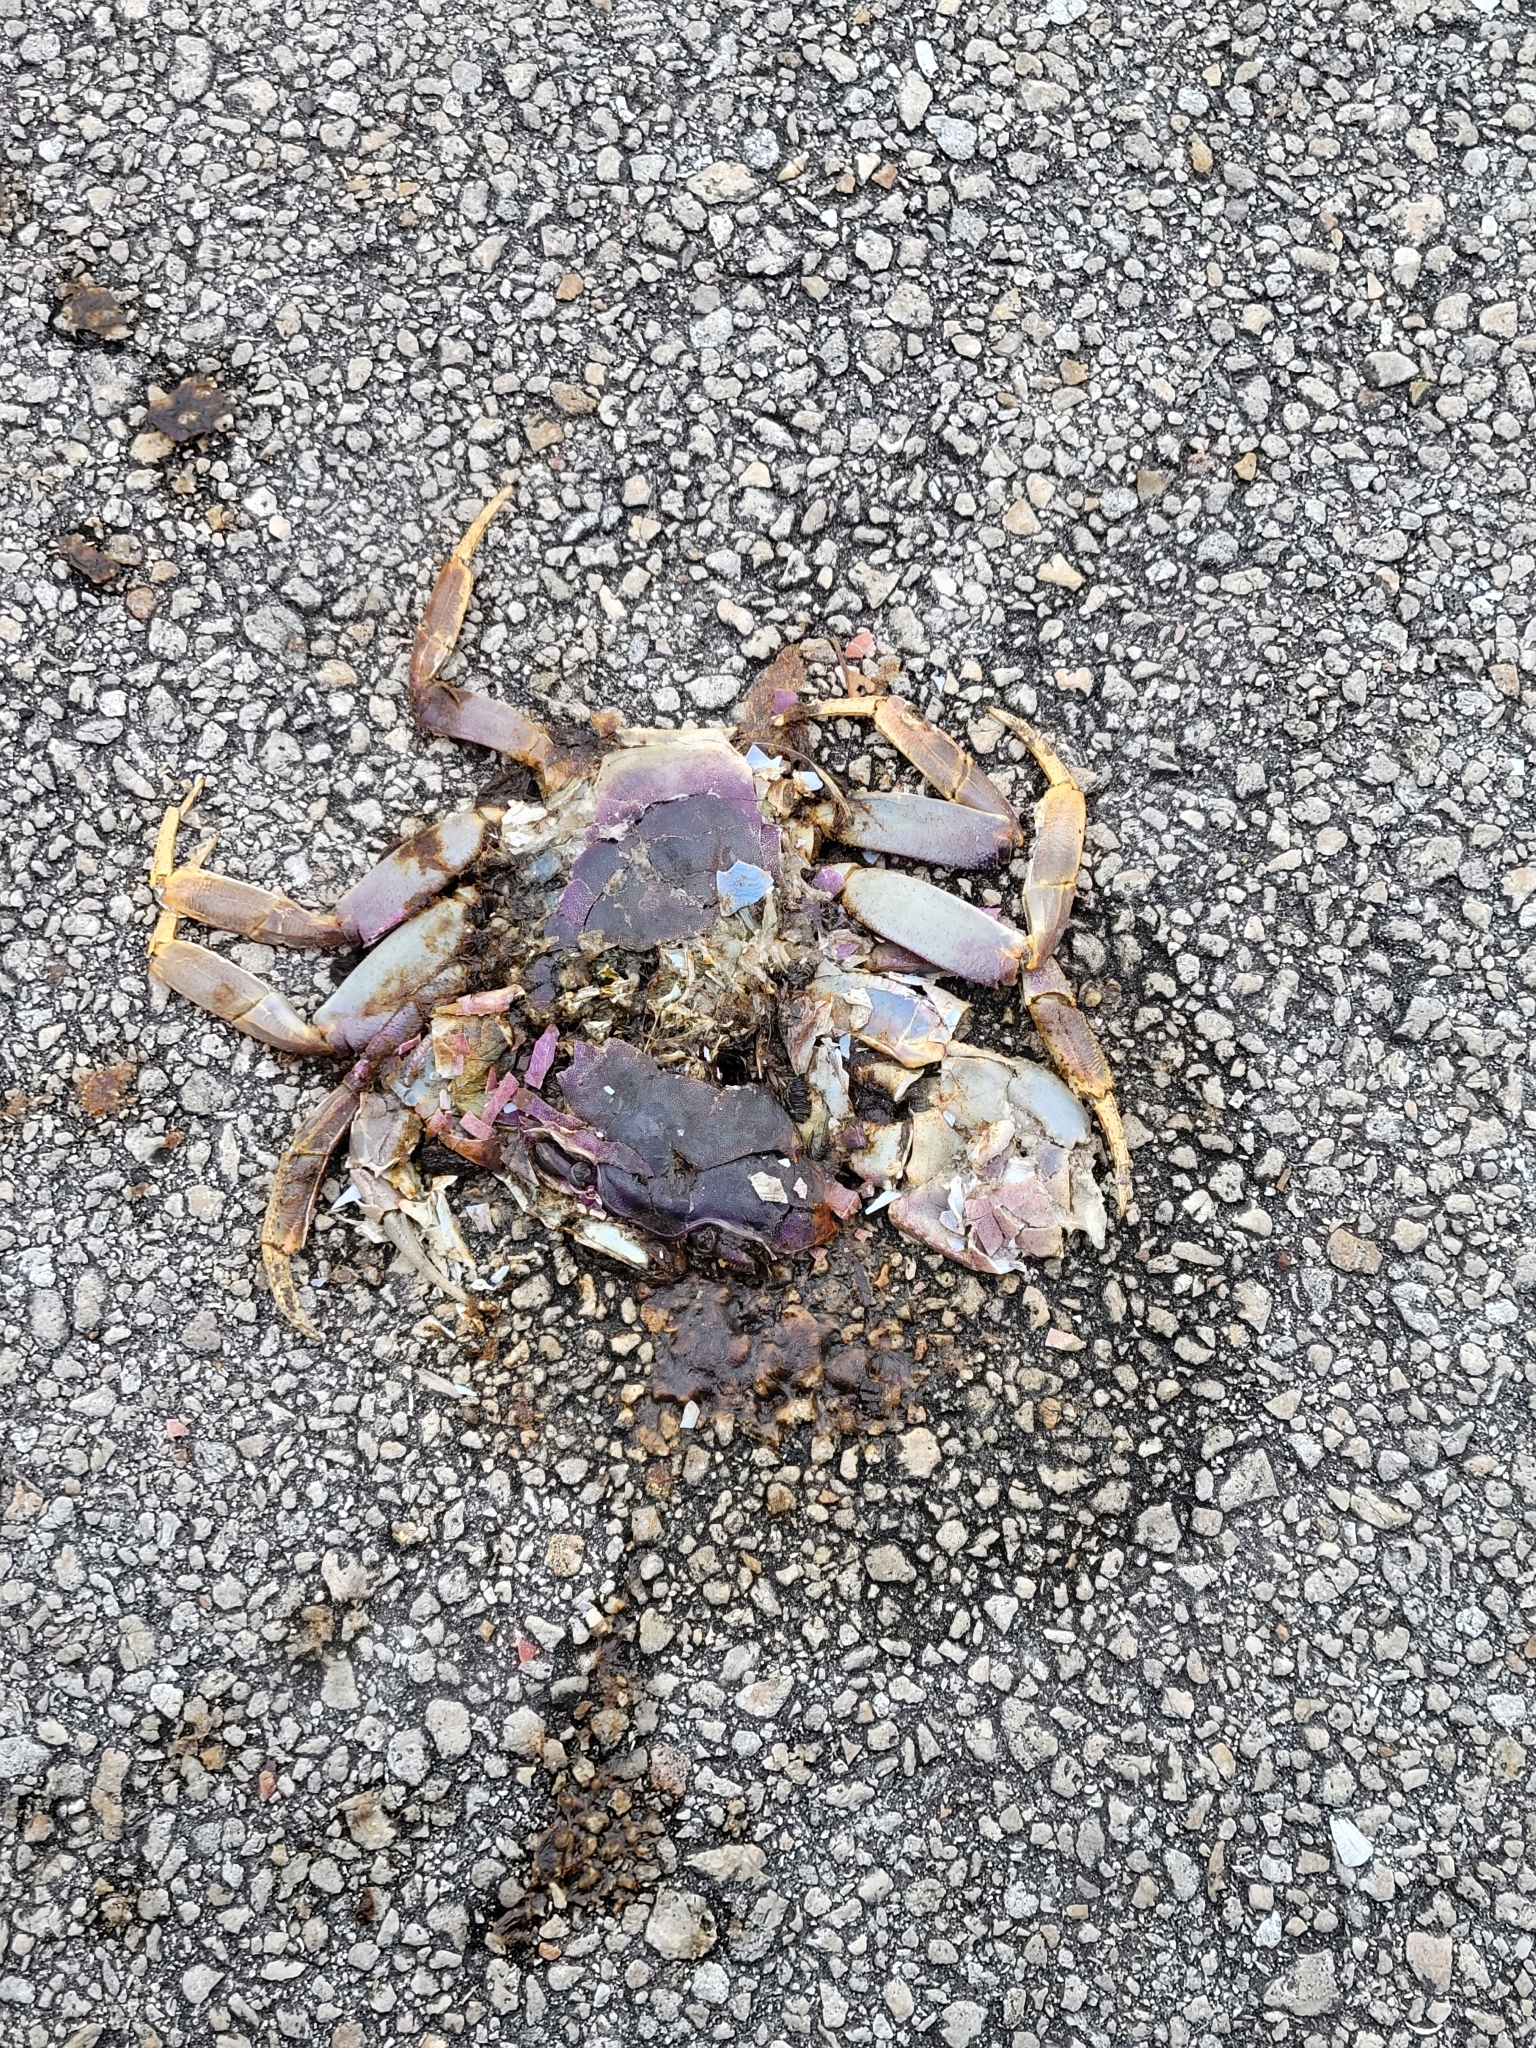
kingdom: Animalia
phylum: Arthropoda
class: Malacostraca
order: Decapoda
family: Gecarcinidae
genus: Cardisoma
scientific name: Cardisoma guanhumi
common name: Great land crab
